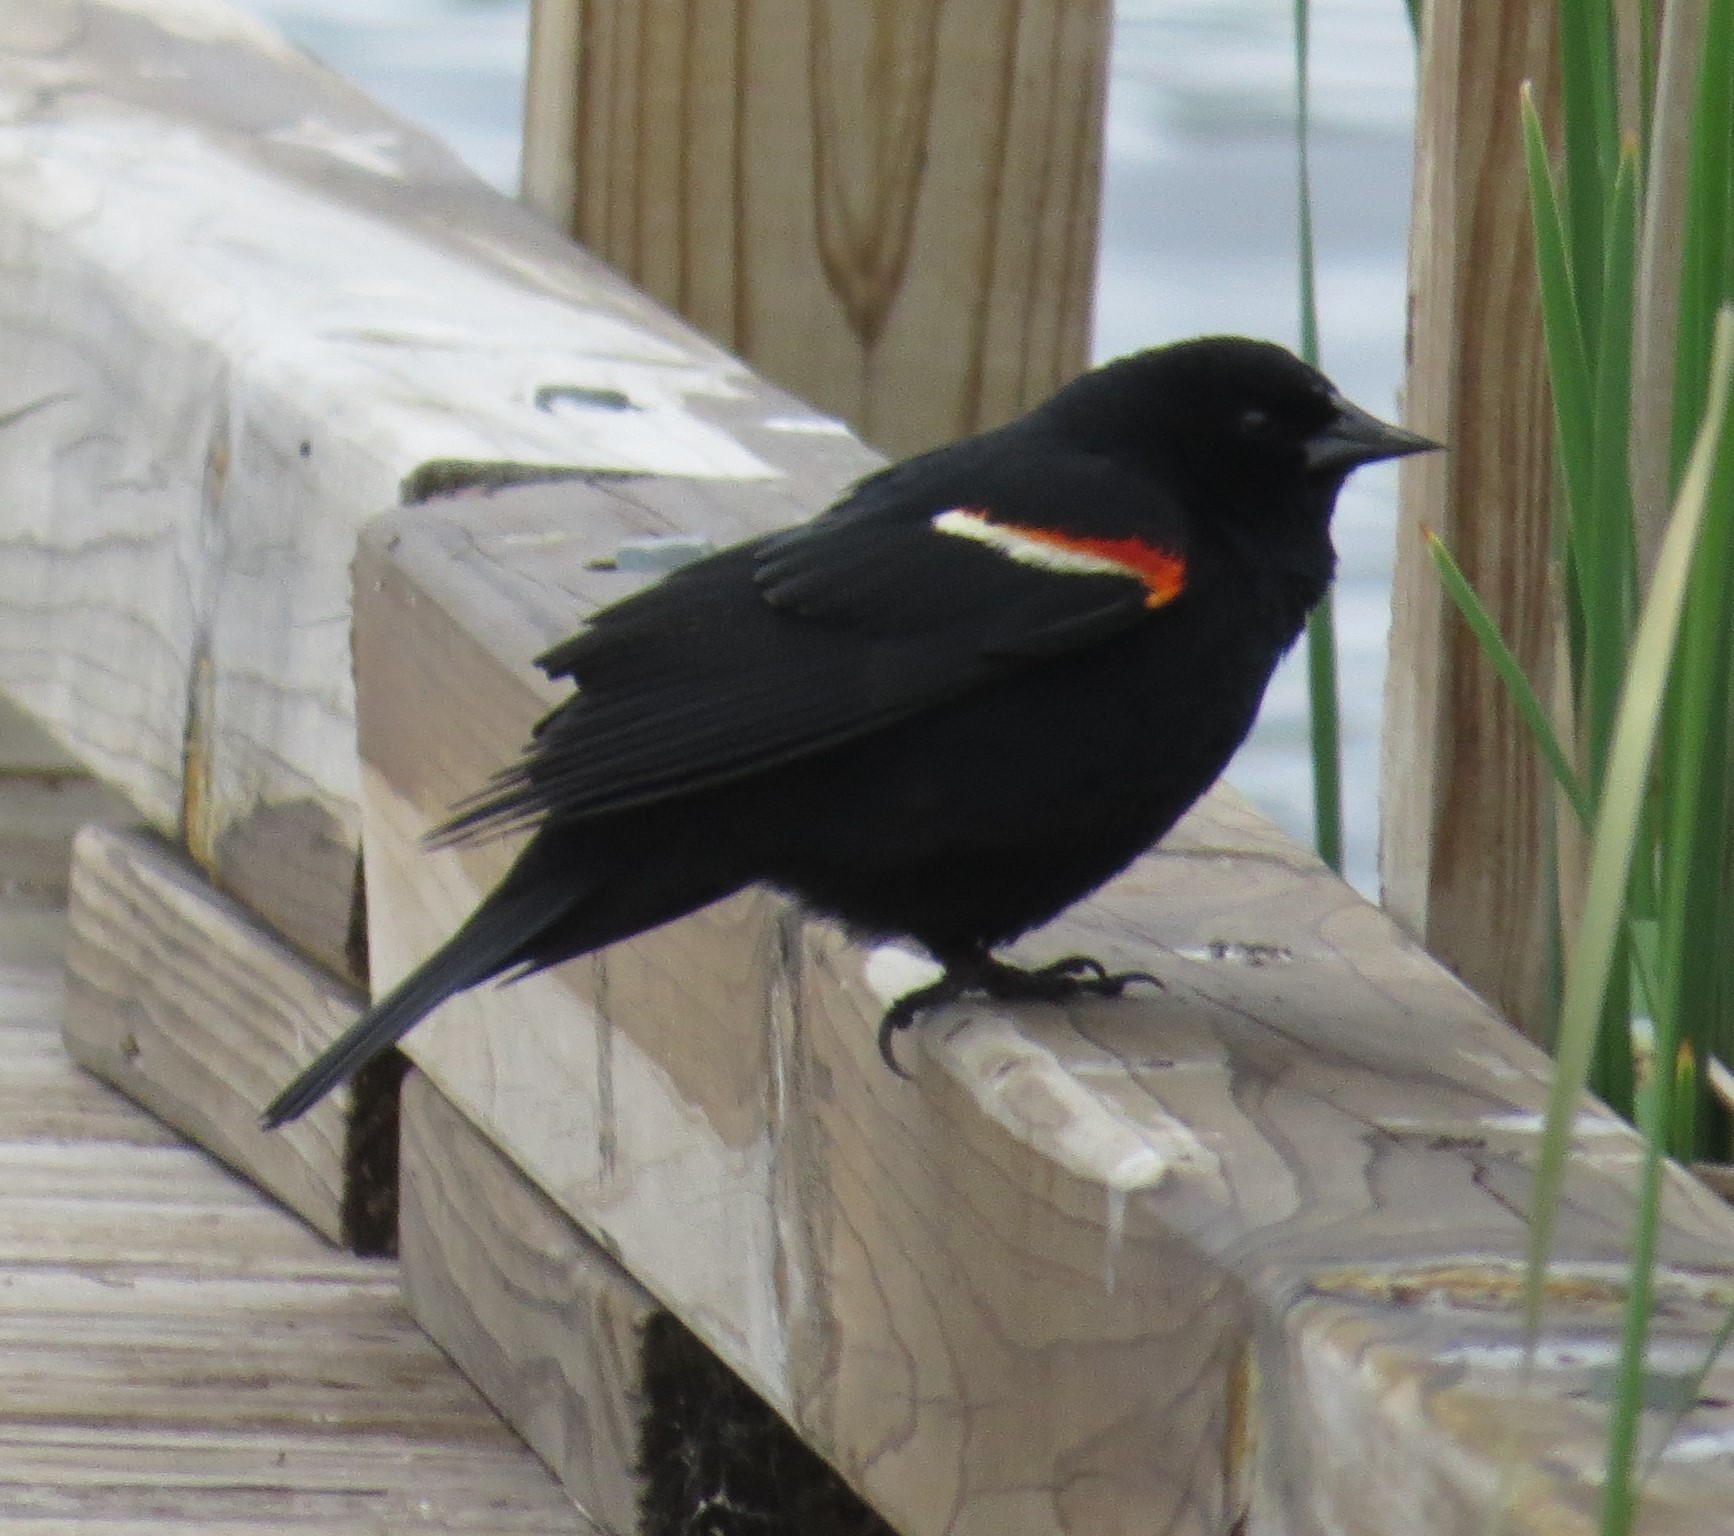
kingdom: Animalia
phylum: Chordata
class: Aves
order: Passeriformes
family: Icteridae
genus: Agelaius
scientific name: Agelaius phoeniceus
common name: Red-winged blackbird
